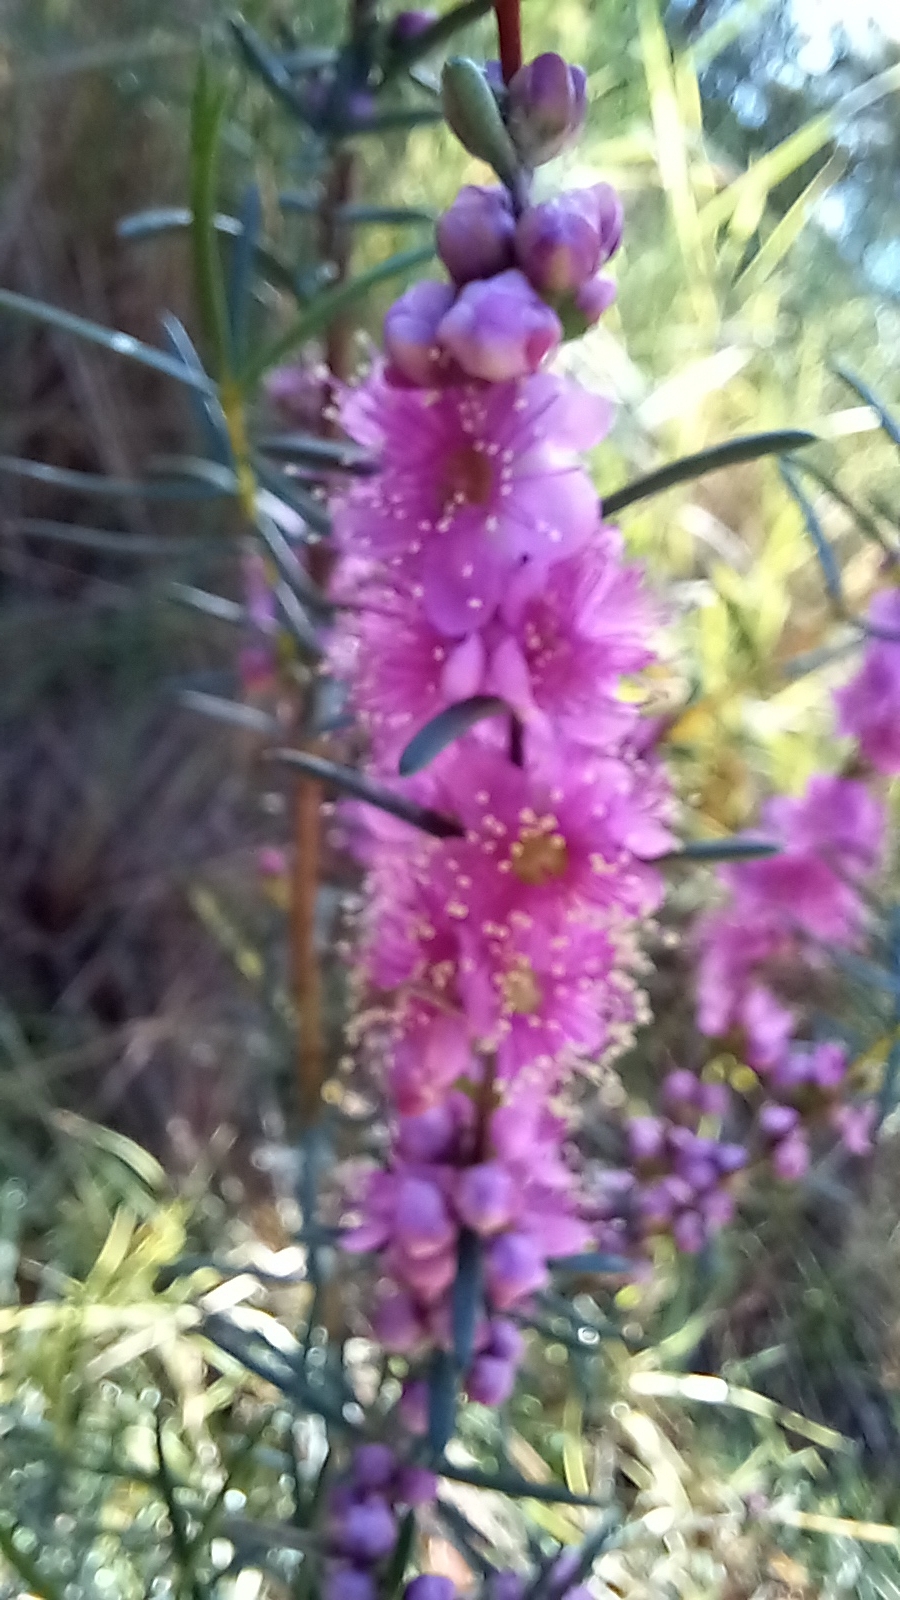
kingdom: Plantae
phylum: Tracheophyta
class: Magnoliopsida
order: Myrtales
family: Myrtaceae
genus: Hypocalymma
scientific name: Hypocalymma robustum
